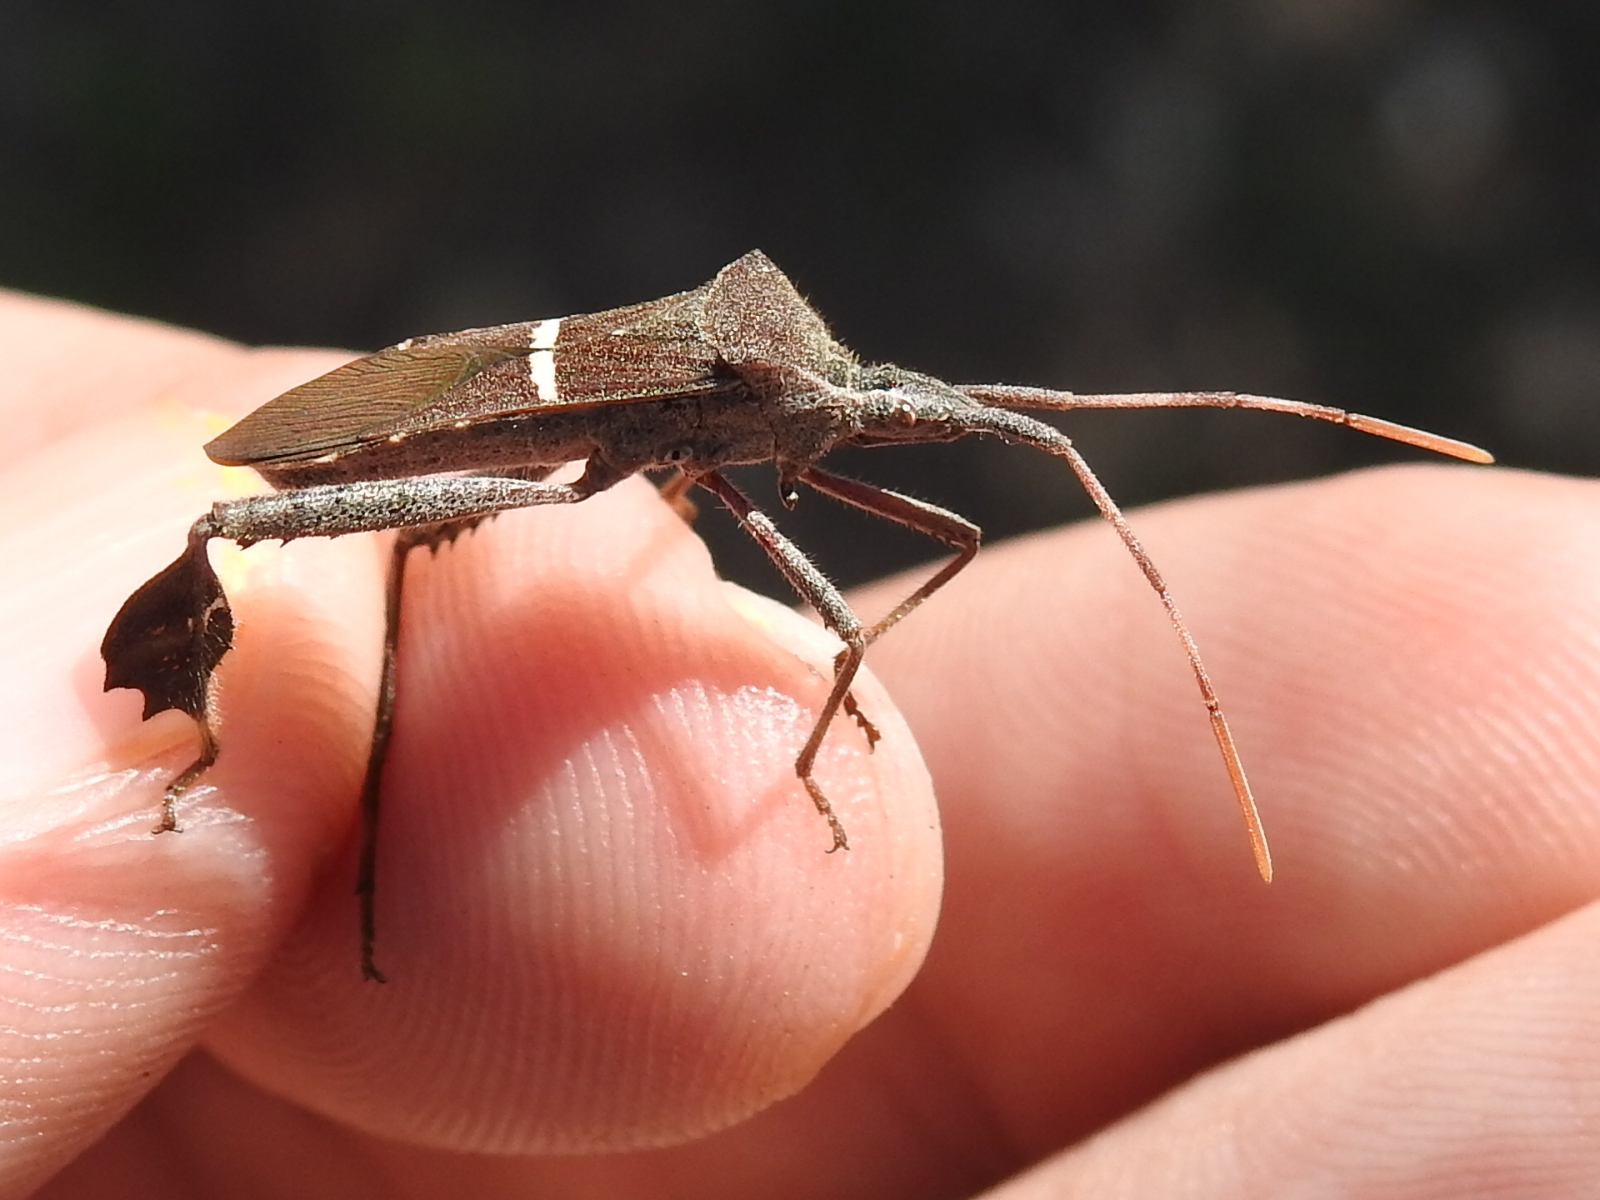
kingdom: Animalia
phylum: Arthropoda
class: Insecta
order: Hemiptera
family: Coreidae
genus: Leptoglossus
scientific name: Leptoglossus phyllopus
